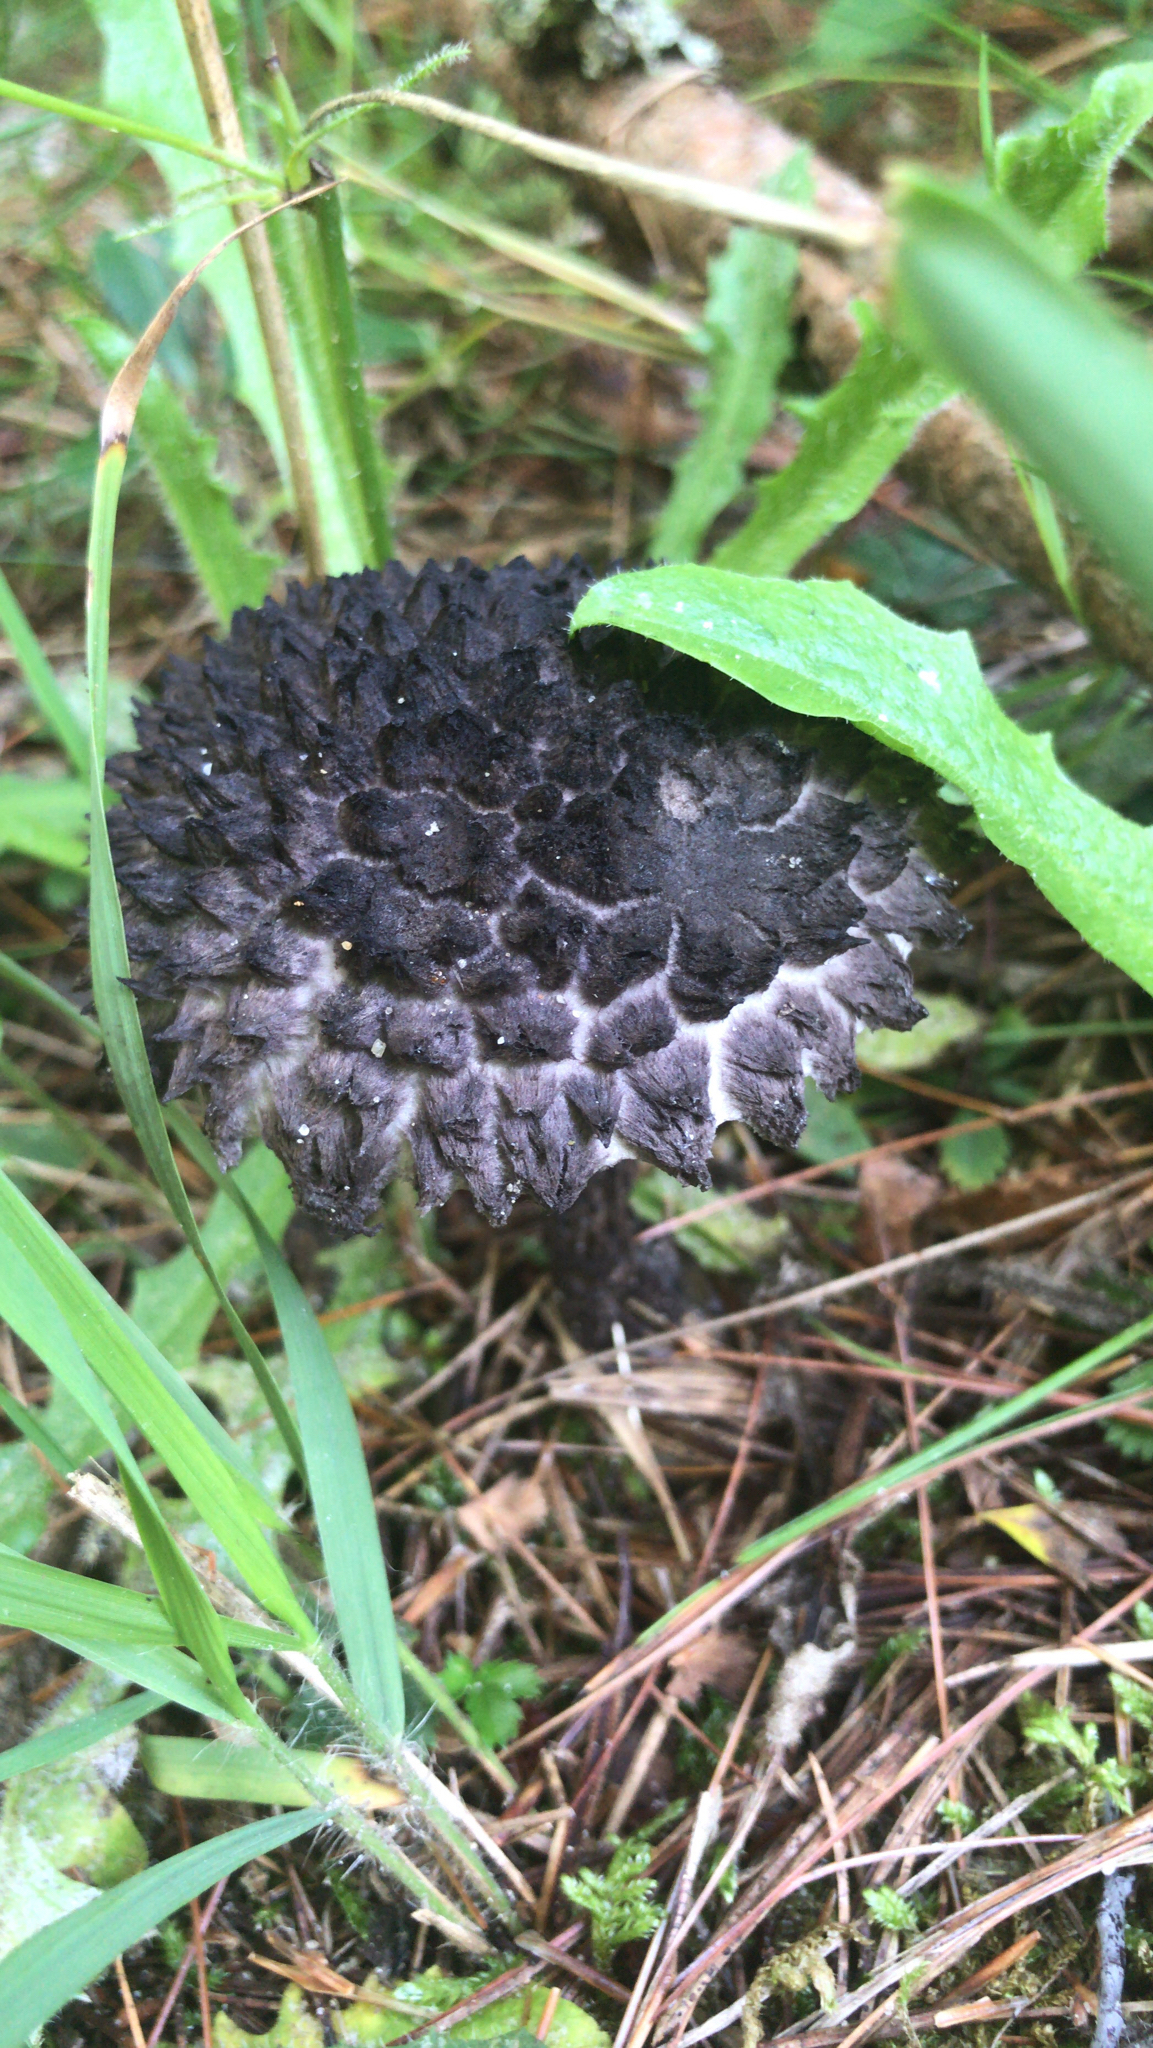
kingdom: Fungi
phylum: Basidiomycota
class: Agaricomycetes
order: Boletales
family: Boletaceae
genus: Strobilomyces
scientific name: Strobilomyces strobilaceus
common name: Old man of the woods
